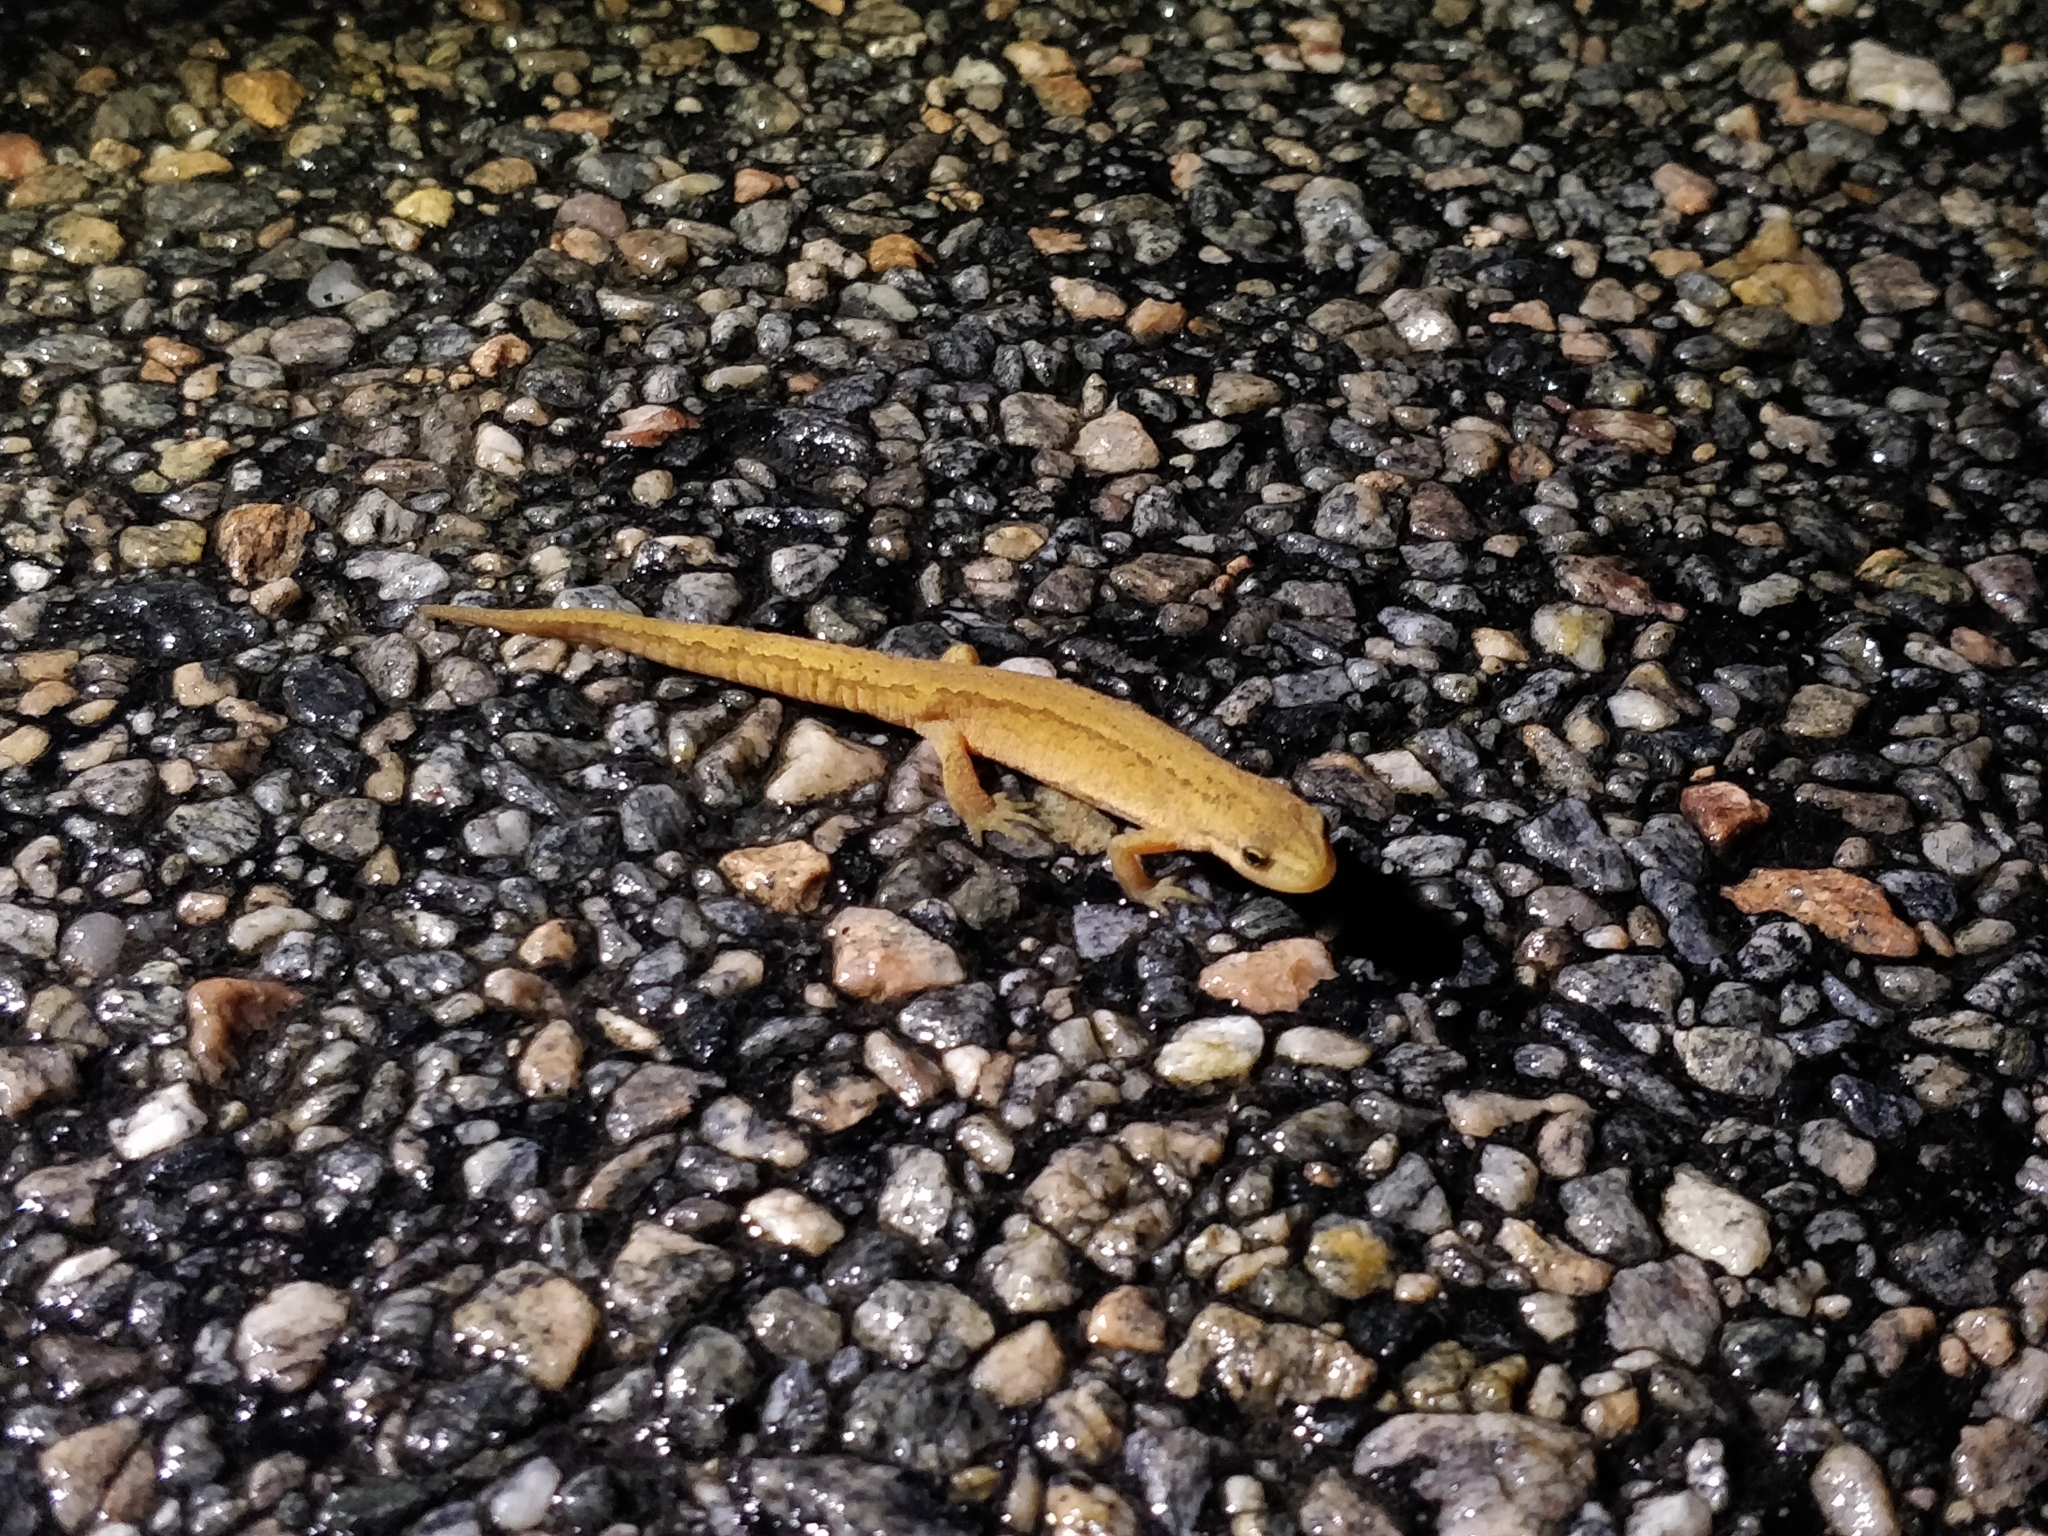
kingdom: Animalia
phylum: Chordata
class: Amphibia
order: Caudata
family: Salamandridae
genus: Lissotriton
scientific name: Lissotriton vulgaris
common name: Smooth newt
